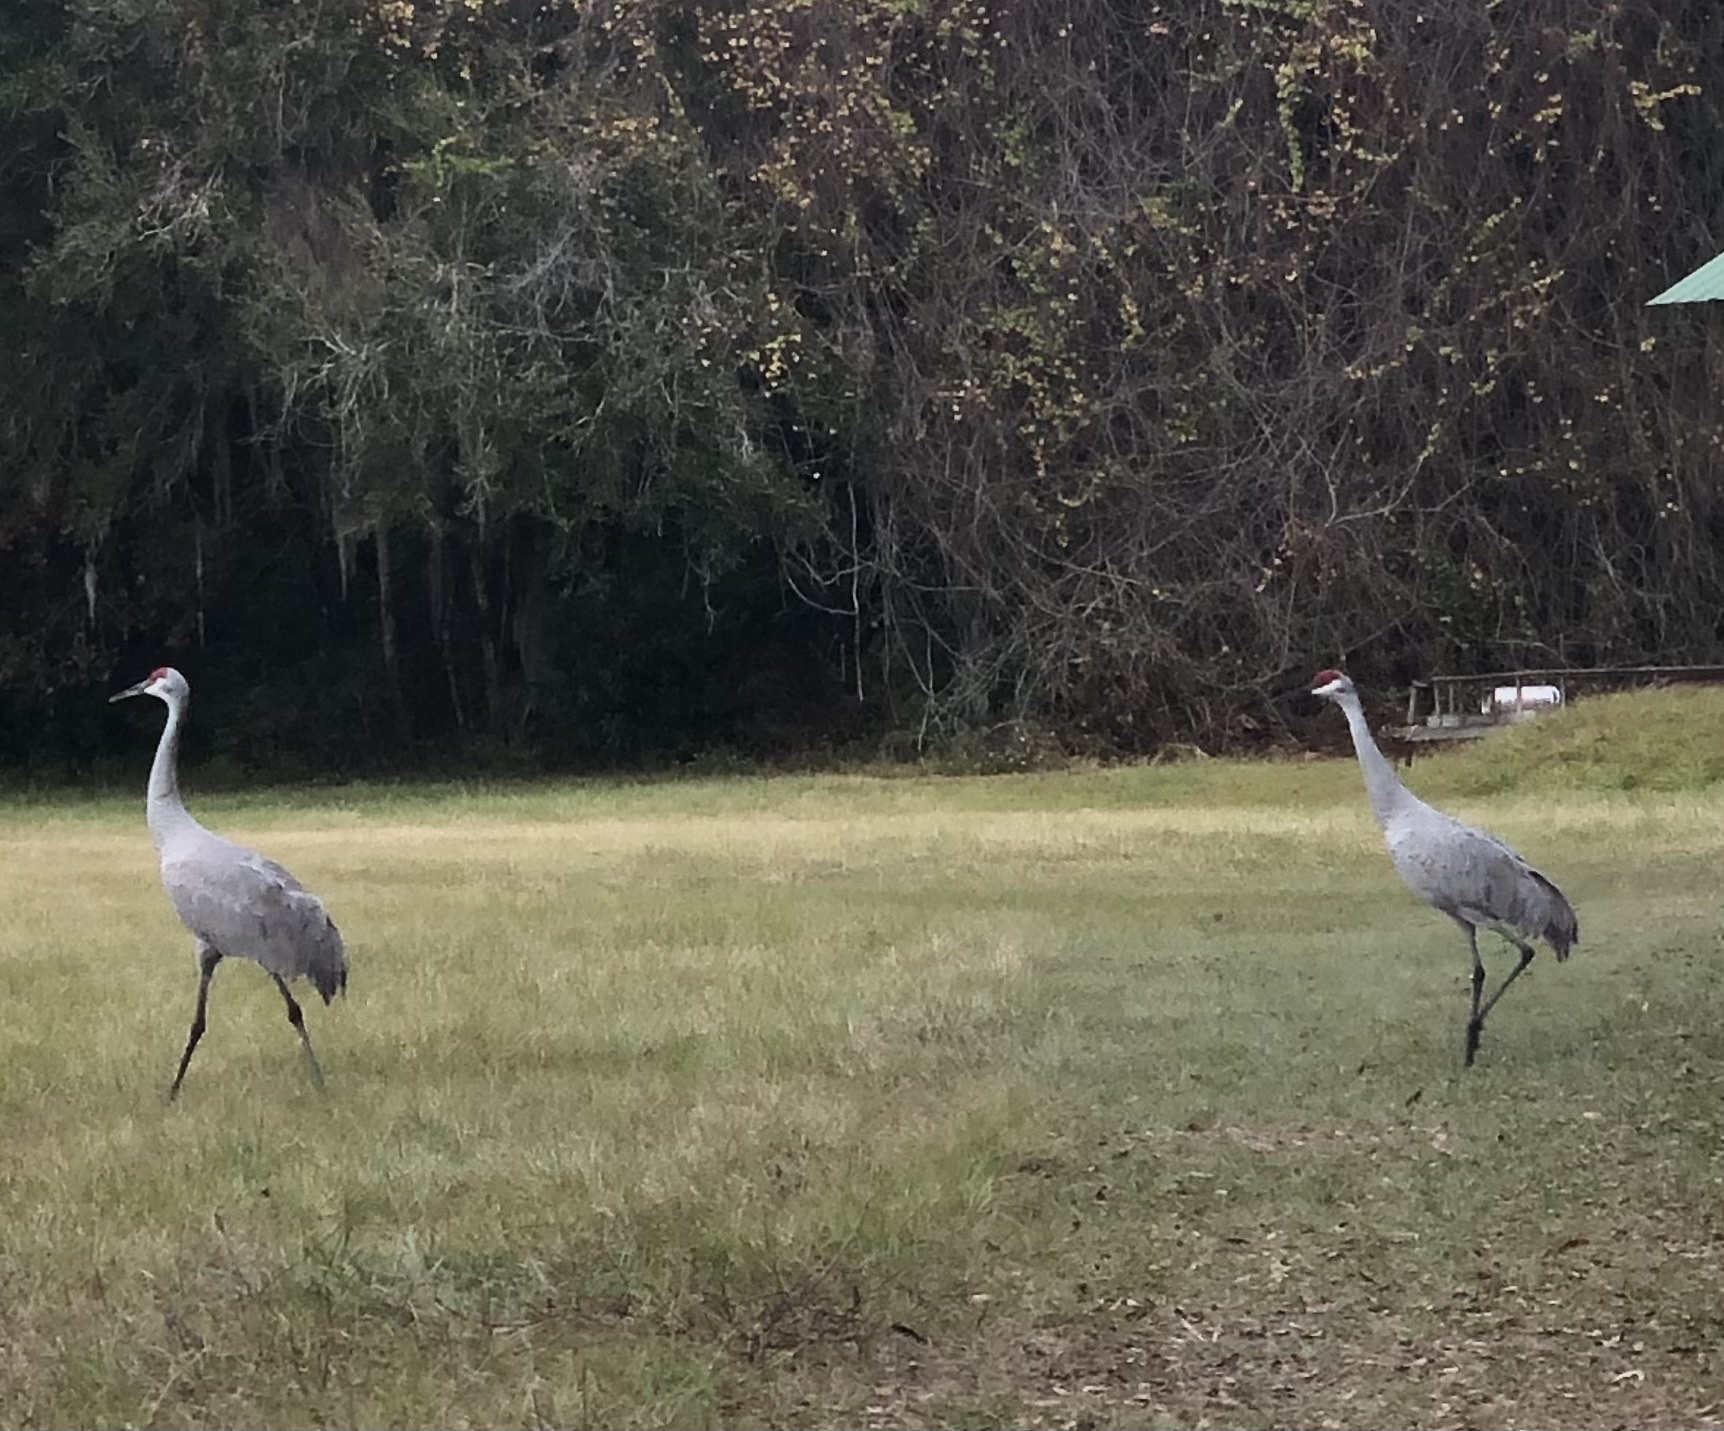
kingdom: Animalia
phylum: Chordata
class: Aves
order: Gruiformes
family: Gruidae
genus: Grus
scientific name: Grus canadensis
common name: Sandhill crane
